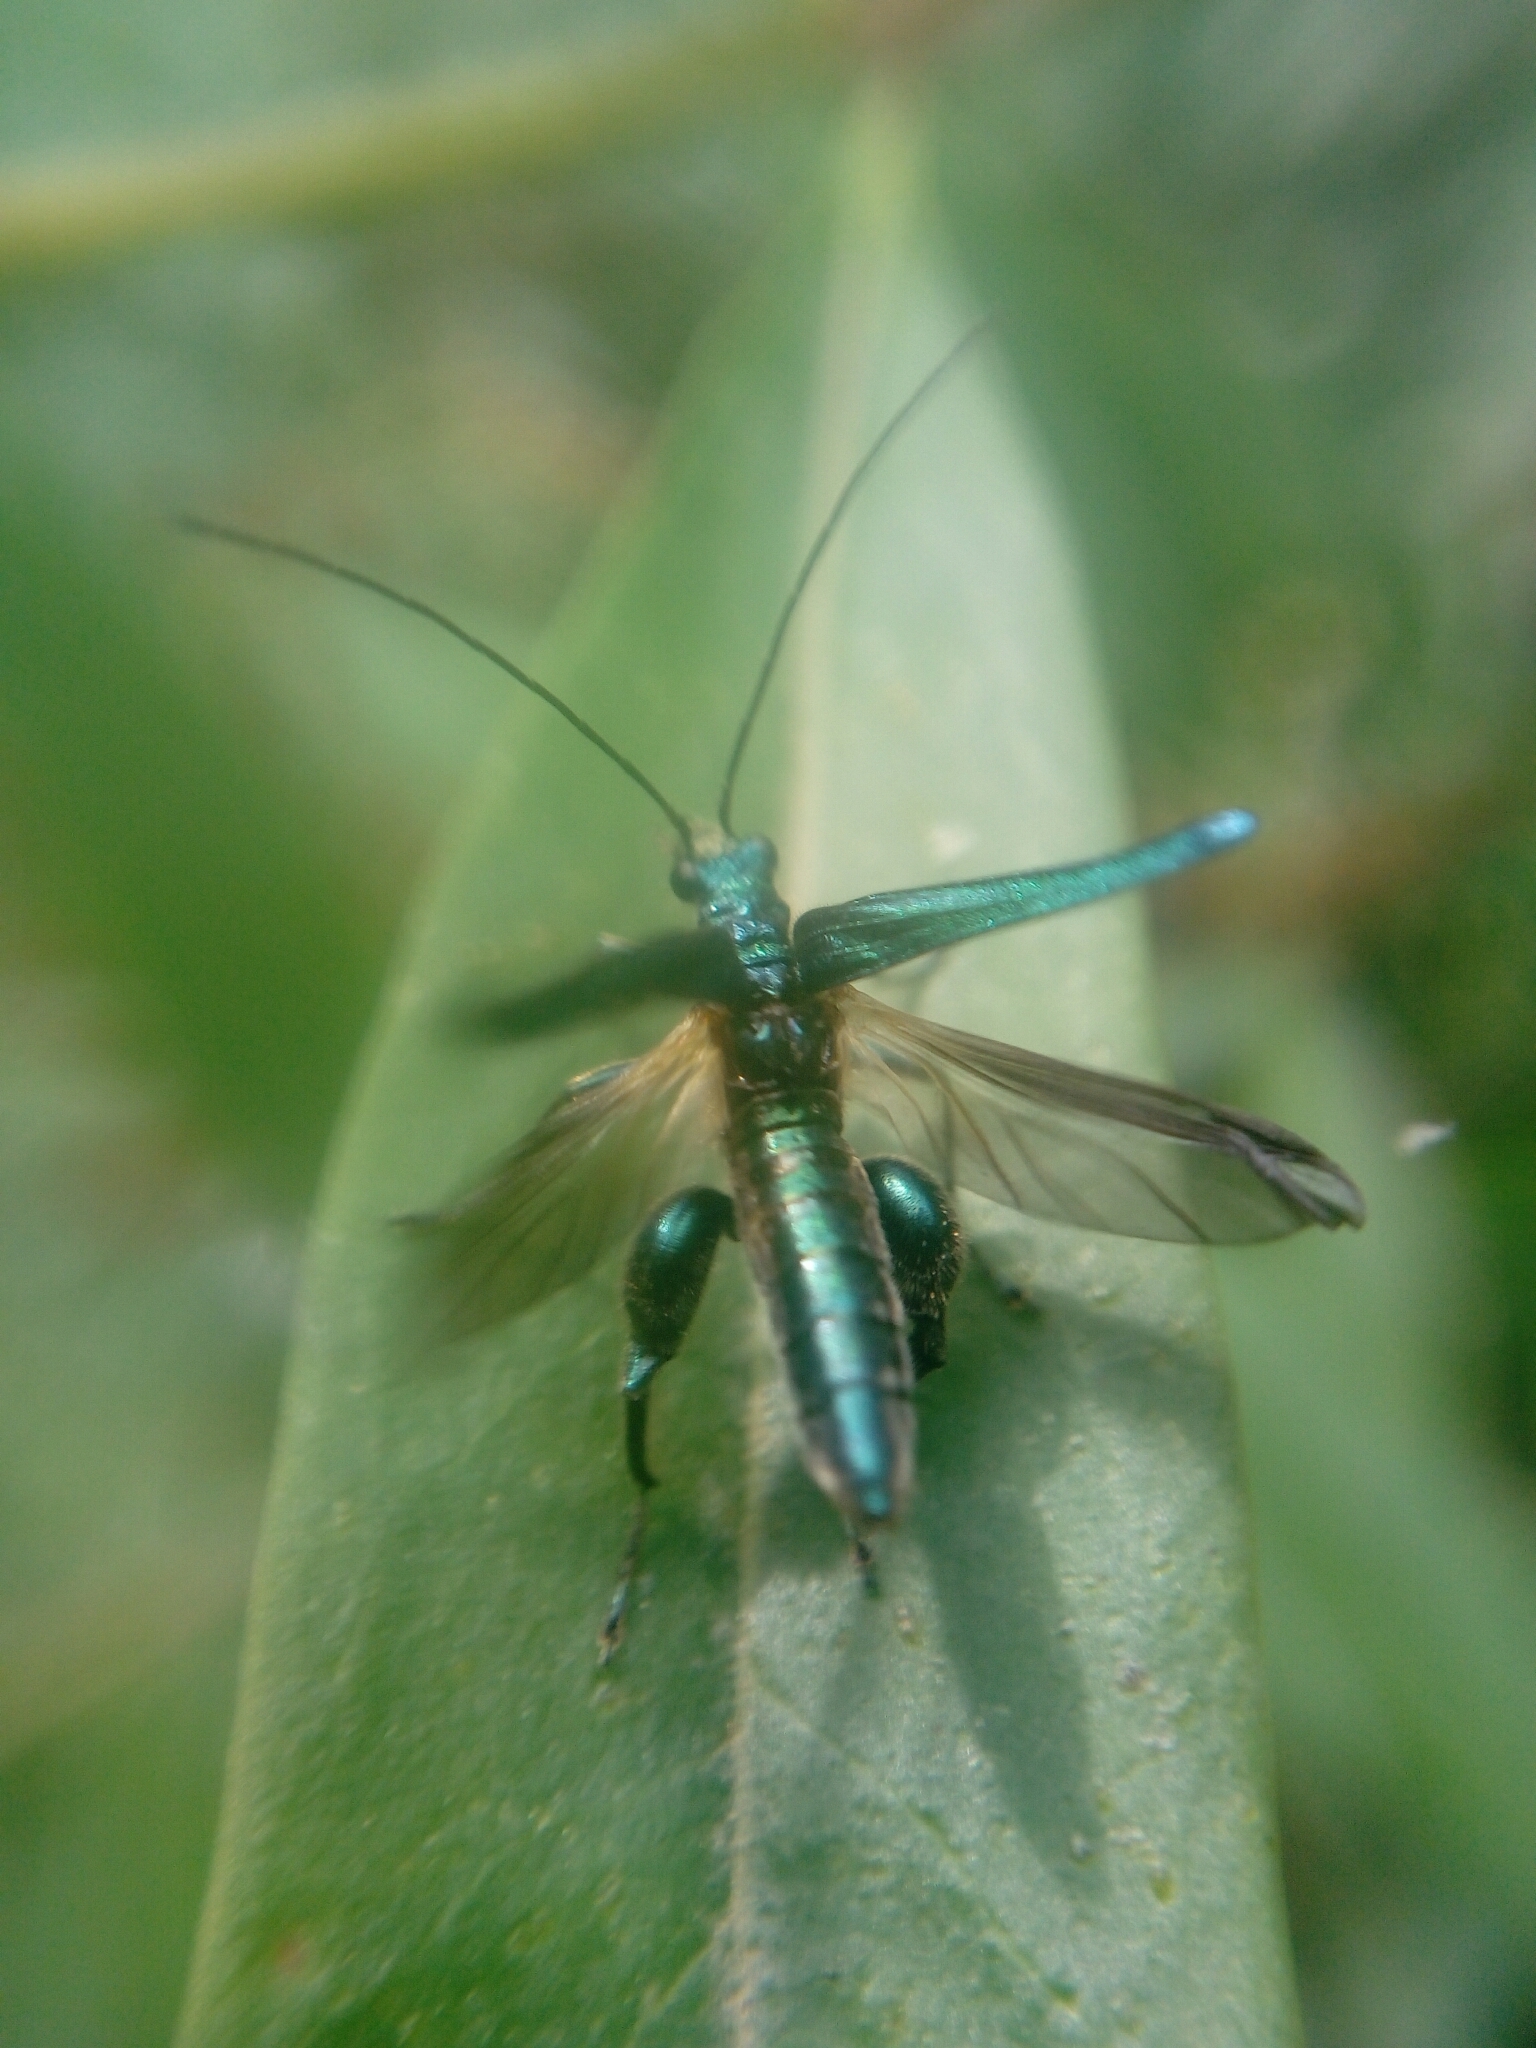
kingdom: Animalia
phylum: Arthropoda
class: Insecta
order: Coleoptera
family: Oedemeridae
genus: Oedemera
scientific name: Oedemera nobilis
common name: Swollen-thighed beetle
